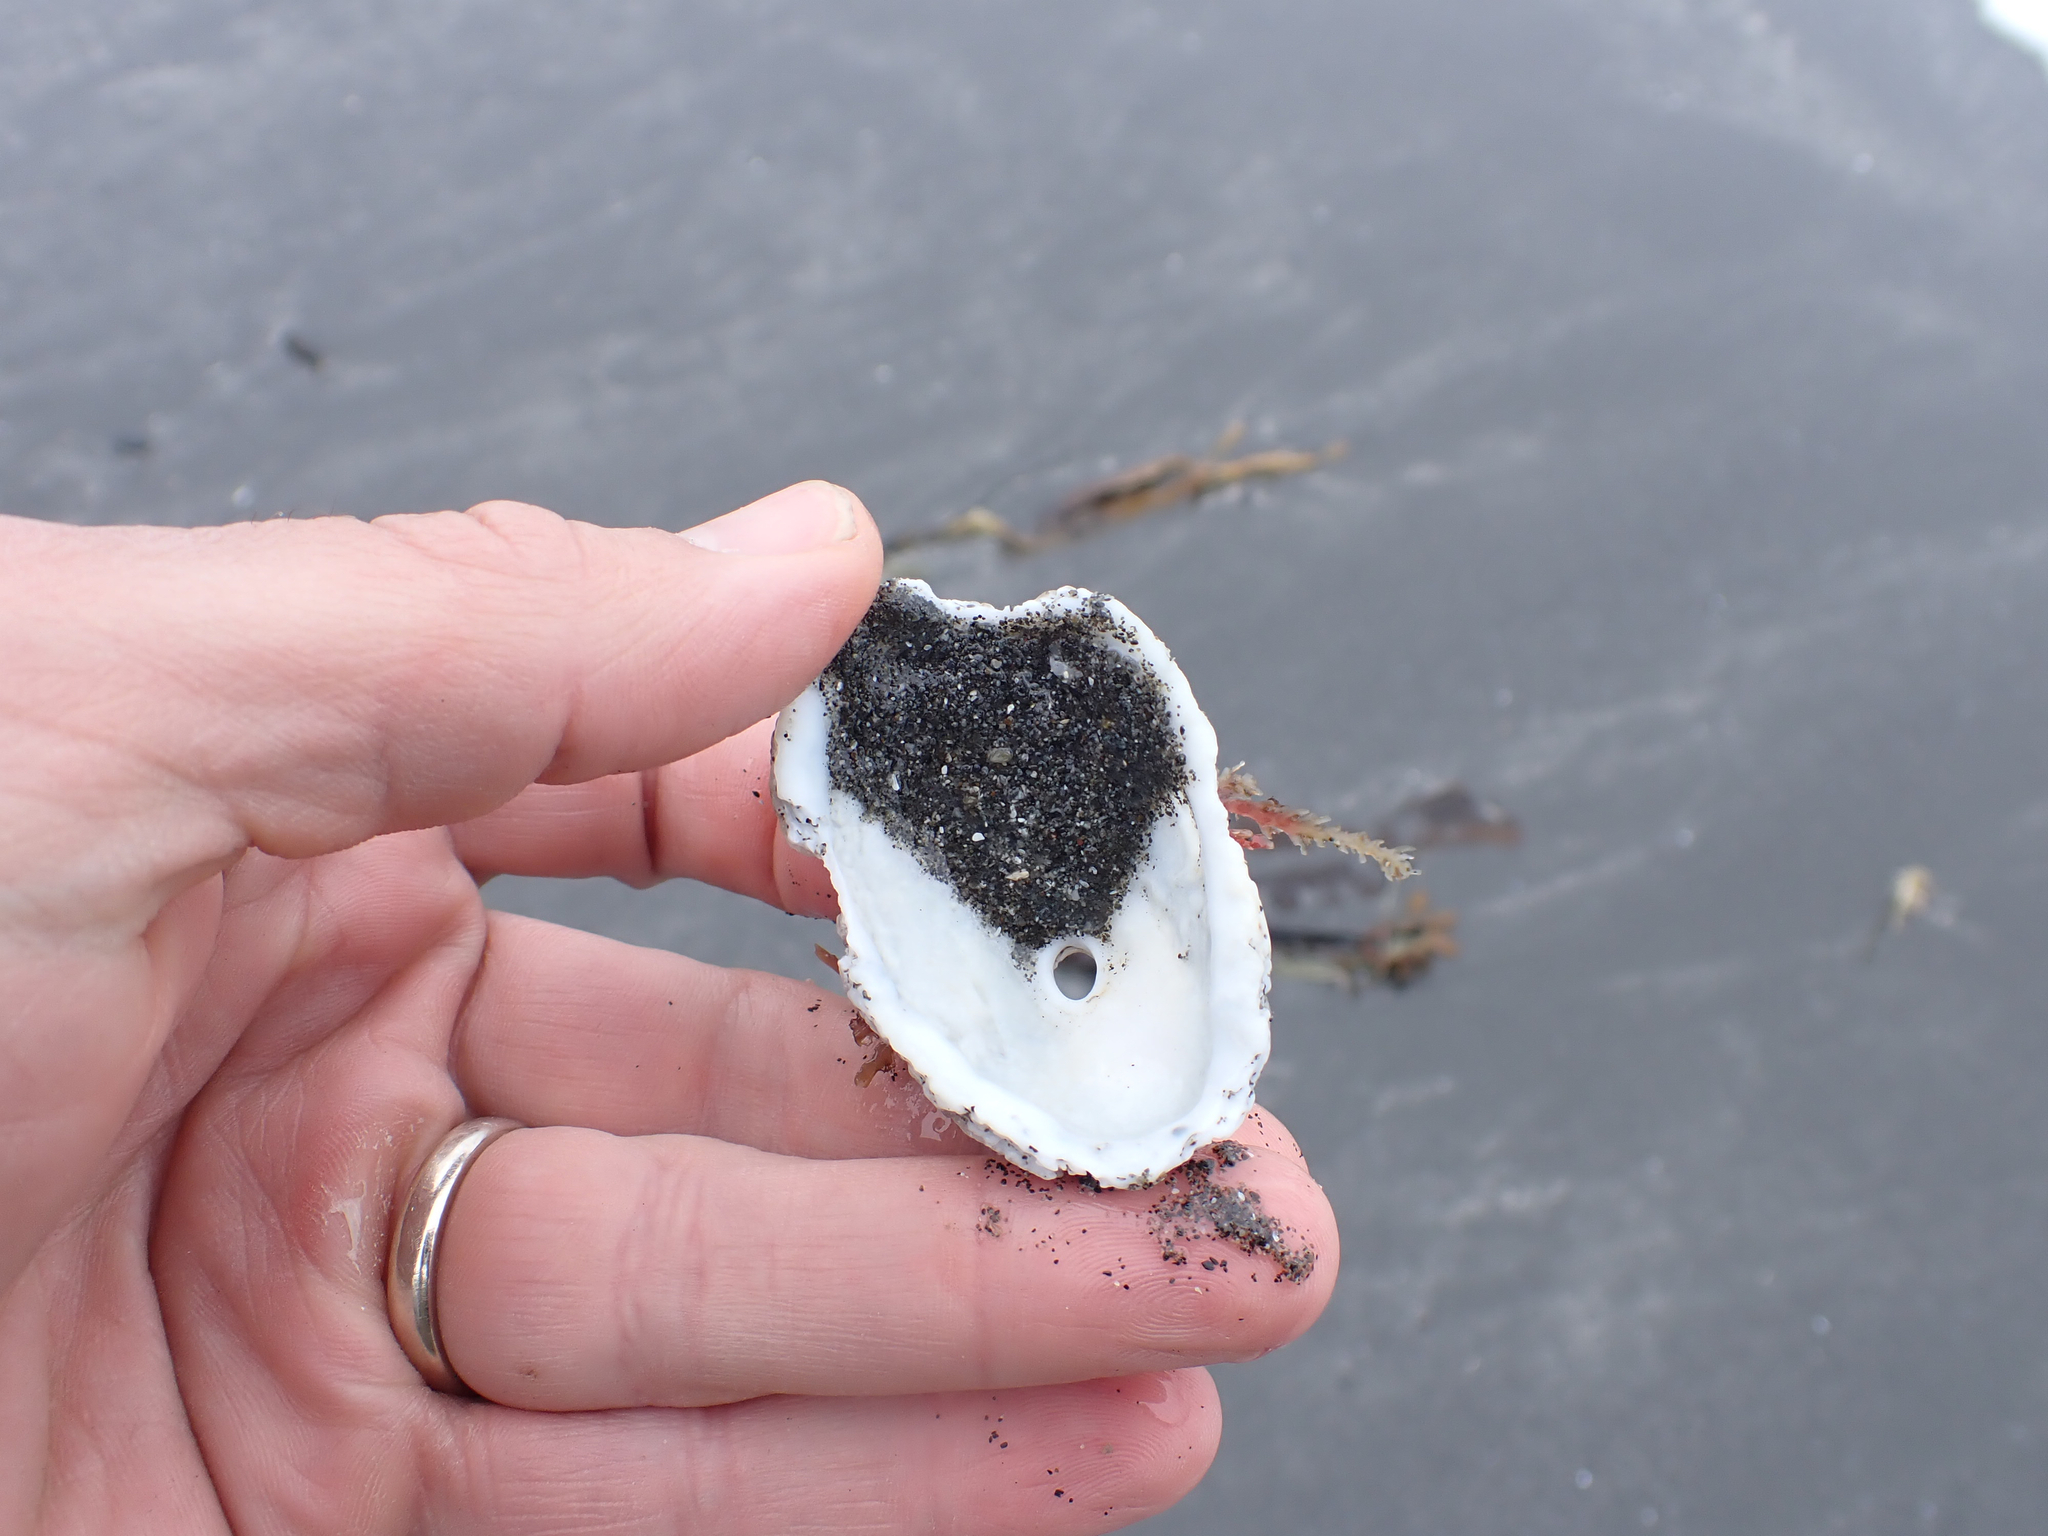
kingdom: Animalia
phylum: Mollusca
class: Gastropoda
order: Lepetellida
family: Fissurellidae
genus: Diodora
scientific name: Diodora aspera
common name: Rough keyhole limpet
